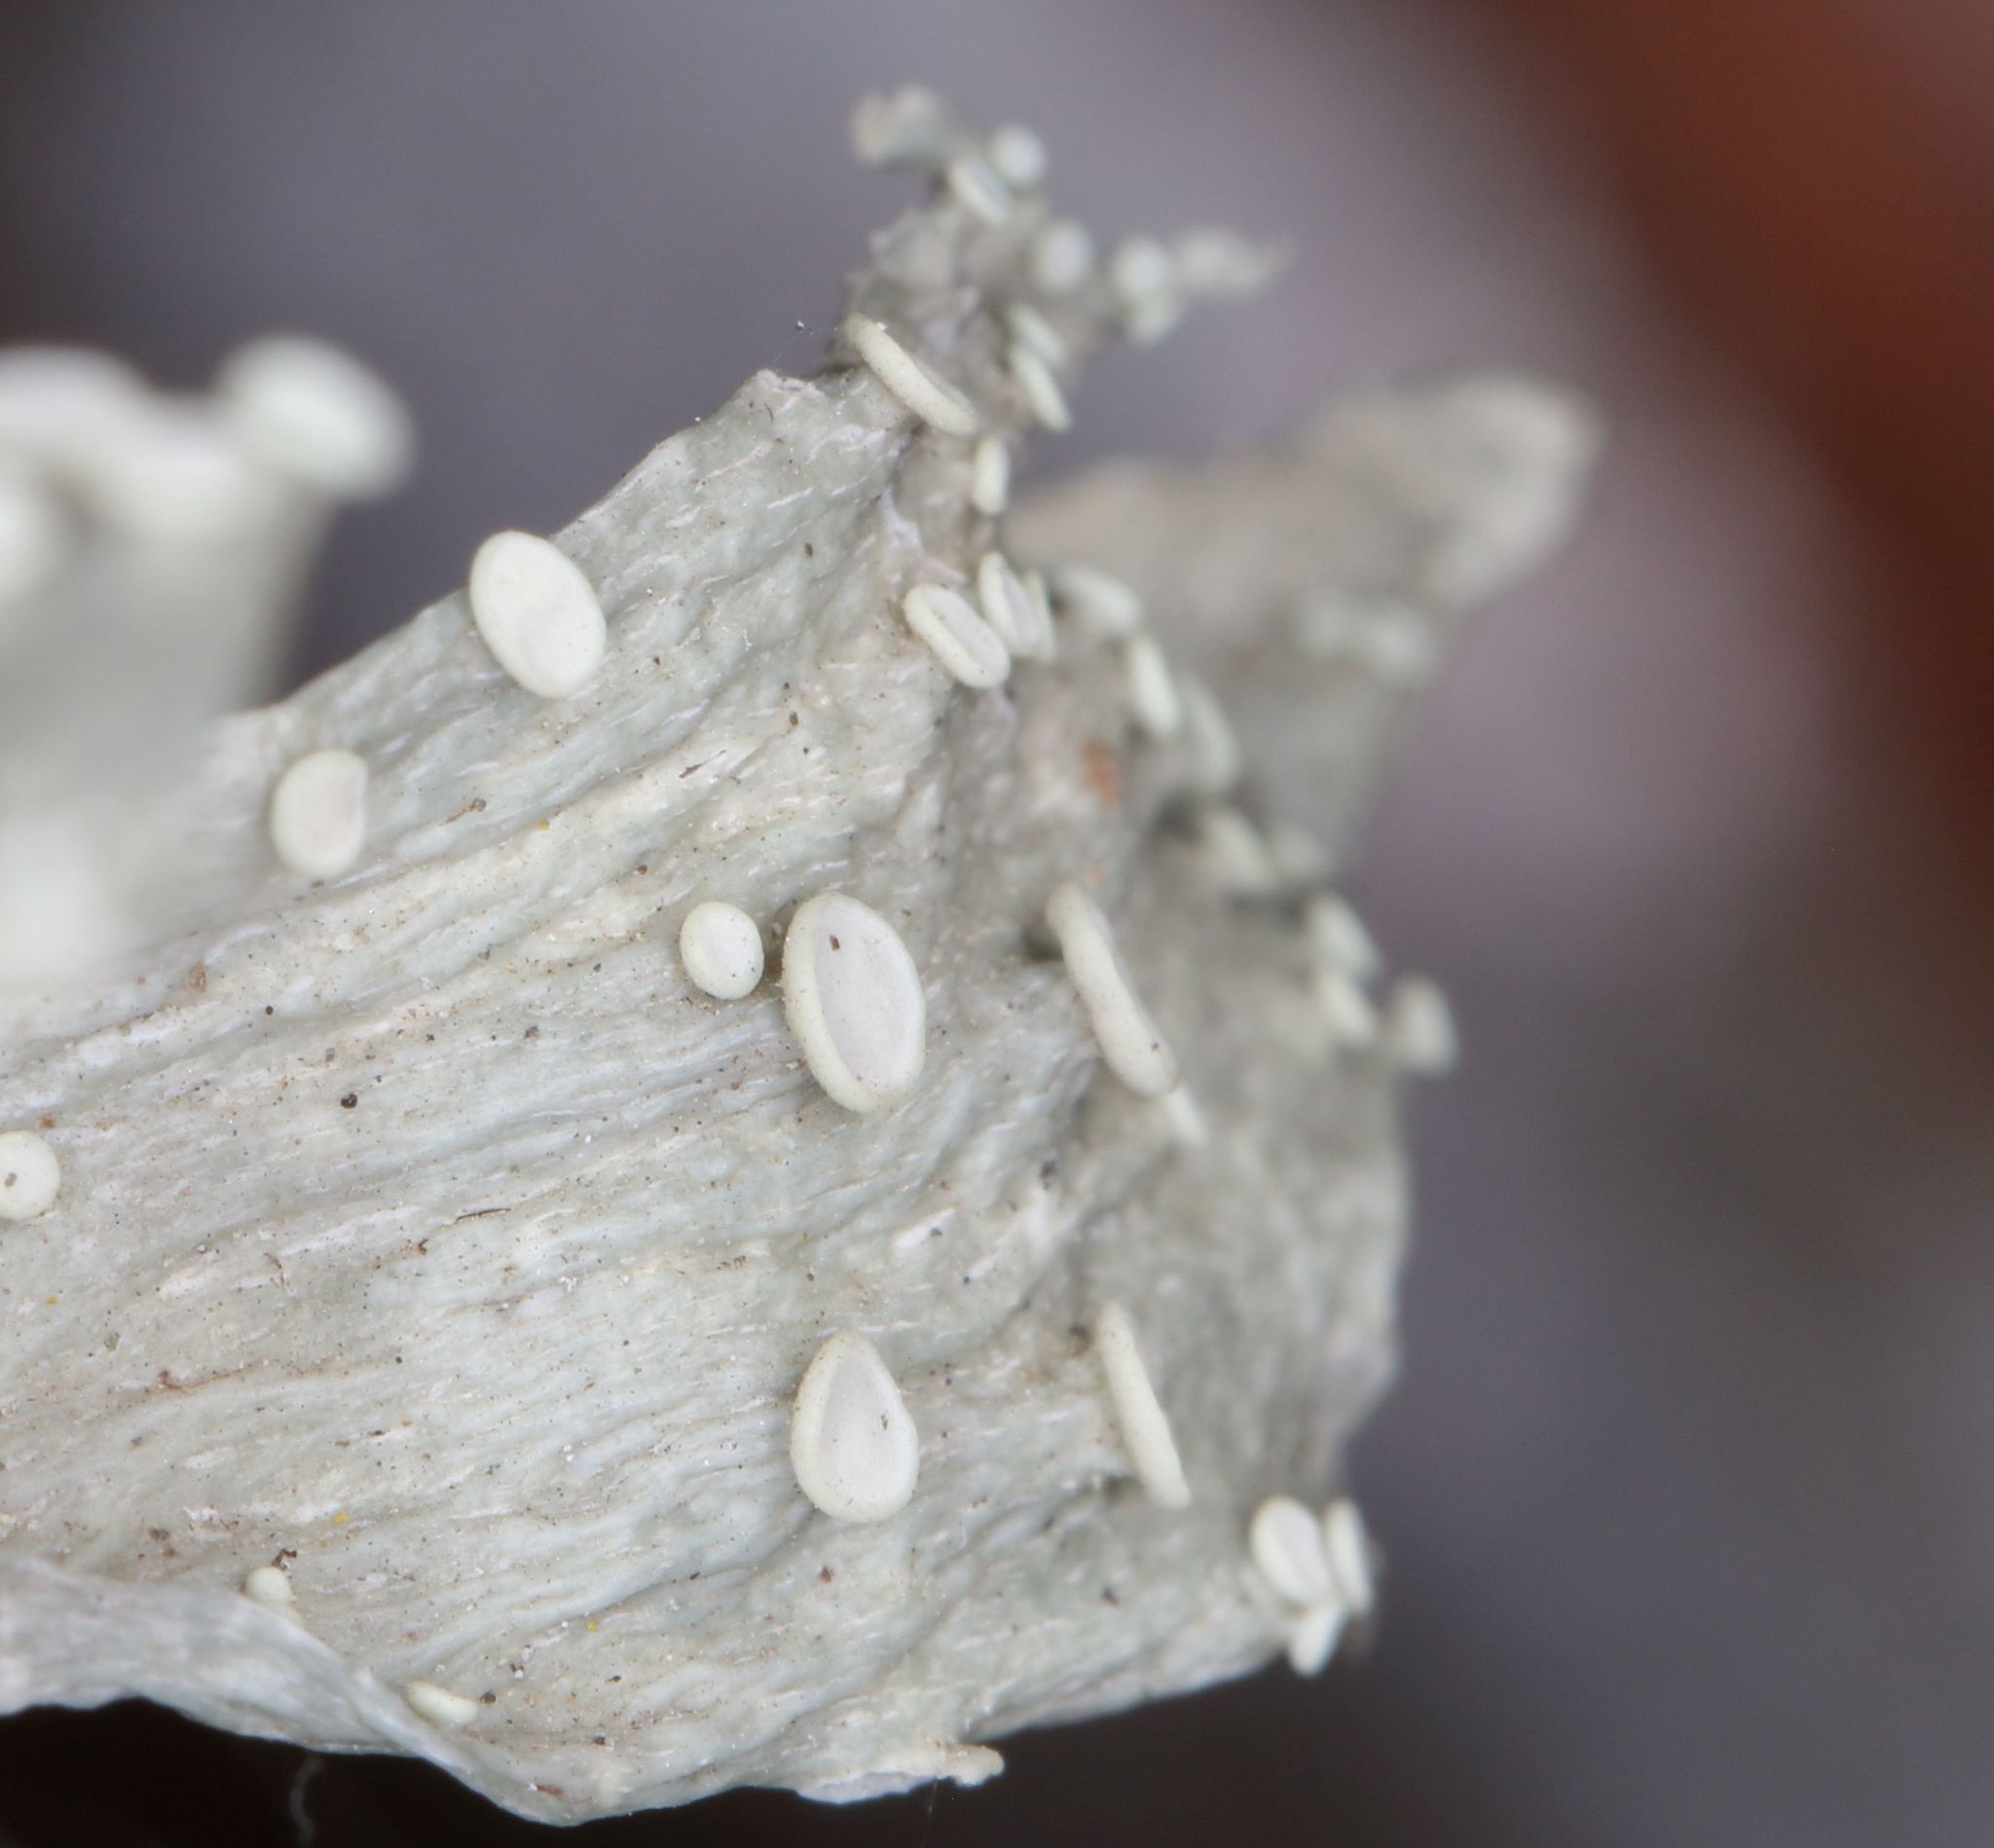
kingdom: Fungi
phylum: Ascomycota
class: Lecanoromycetes
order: Lecanorales
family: Ramalinaceae
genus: Ramalina
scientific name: Ramalina celastri
